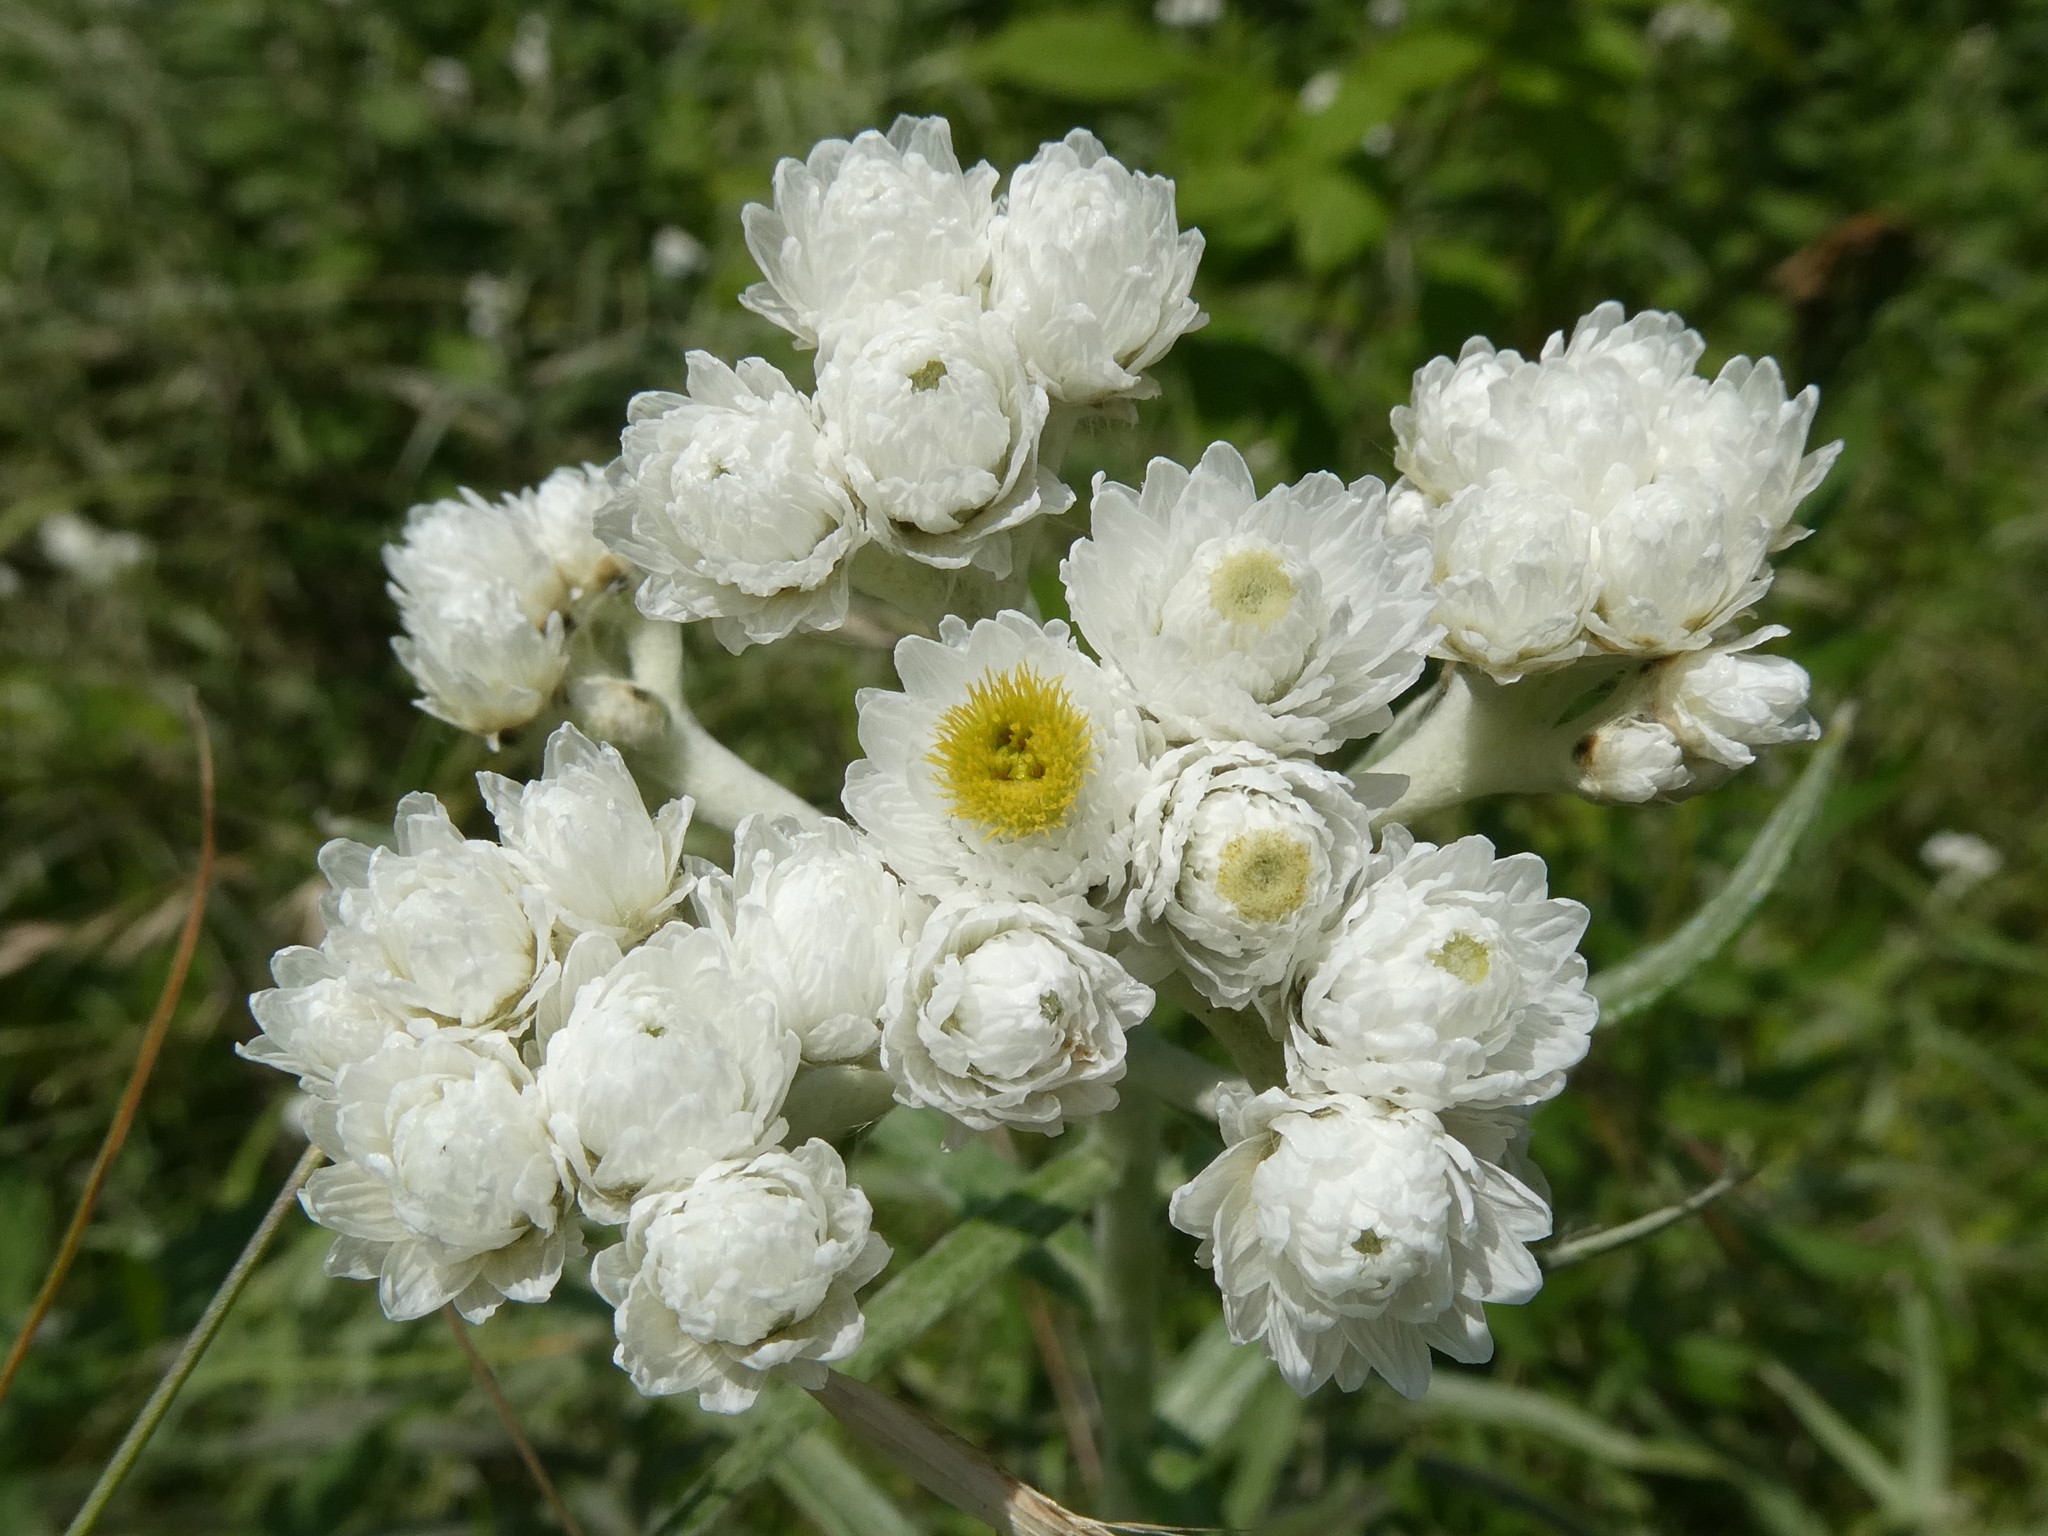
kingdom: Plantae
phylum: Tracheophyta
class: Magnoliopsida
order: Asterales
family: Asteraceae
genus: Anaphalis
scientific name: Anaphalis margaritacea
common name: Pearly everlasting
